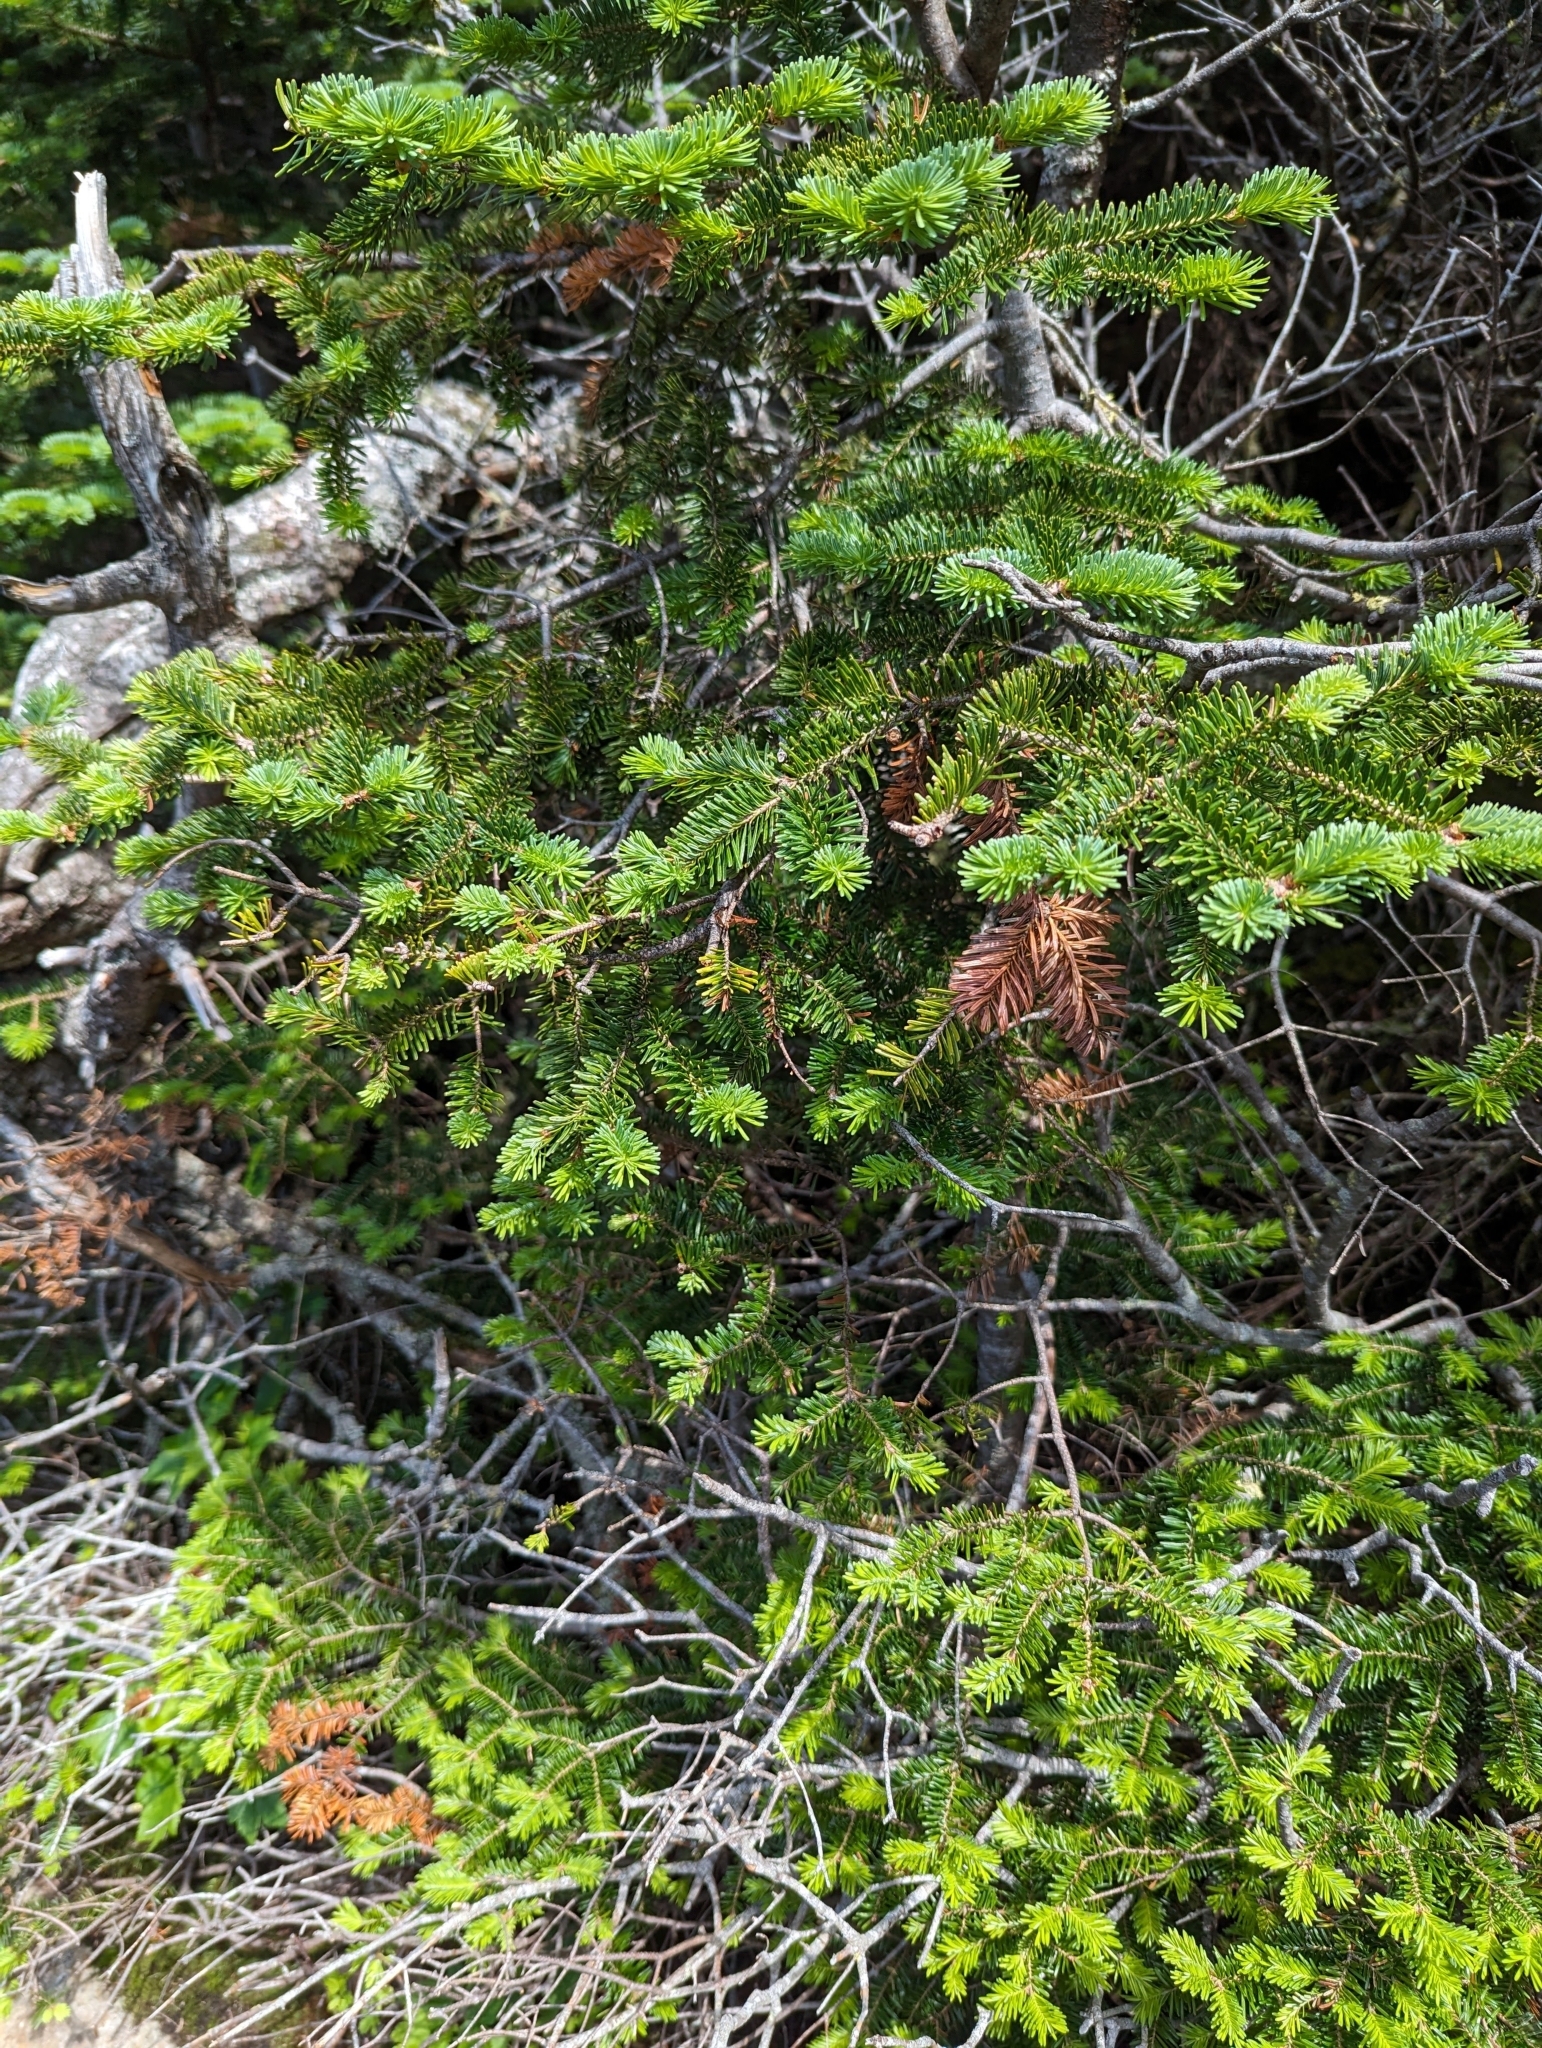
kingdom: Plantae
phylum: Tracheophyta
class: Pinopsida
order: Pinales
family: Pinaceae
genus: Abies
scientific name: Abies balsamea
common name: Balsam fir
